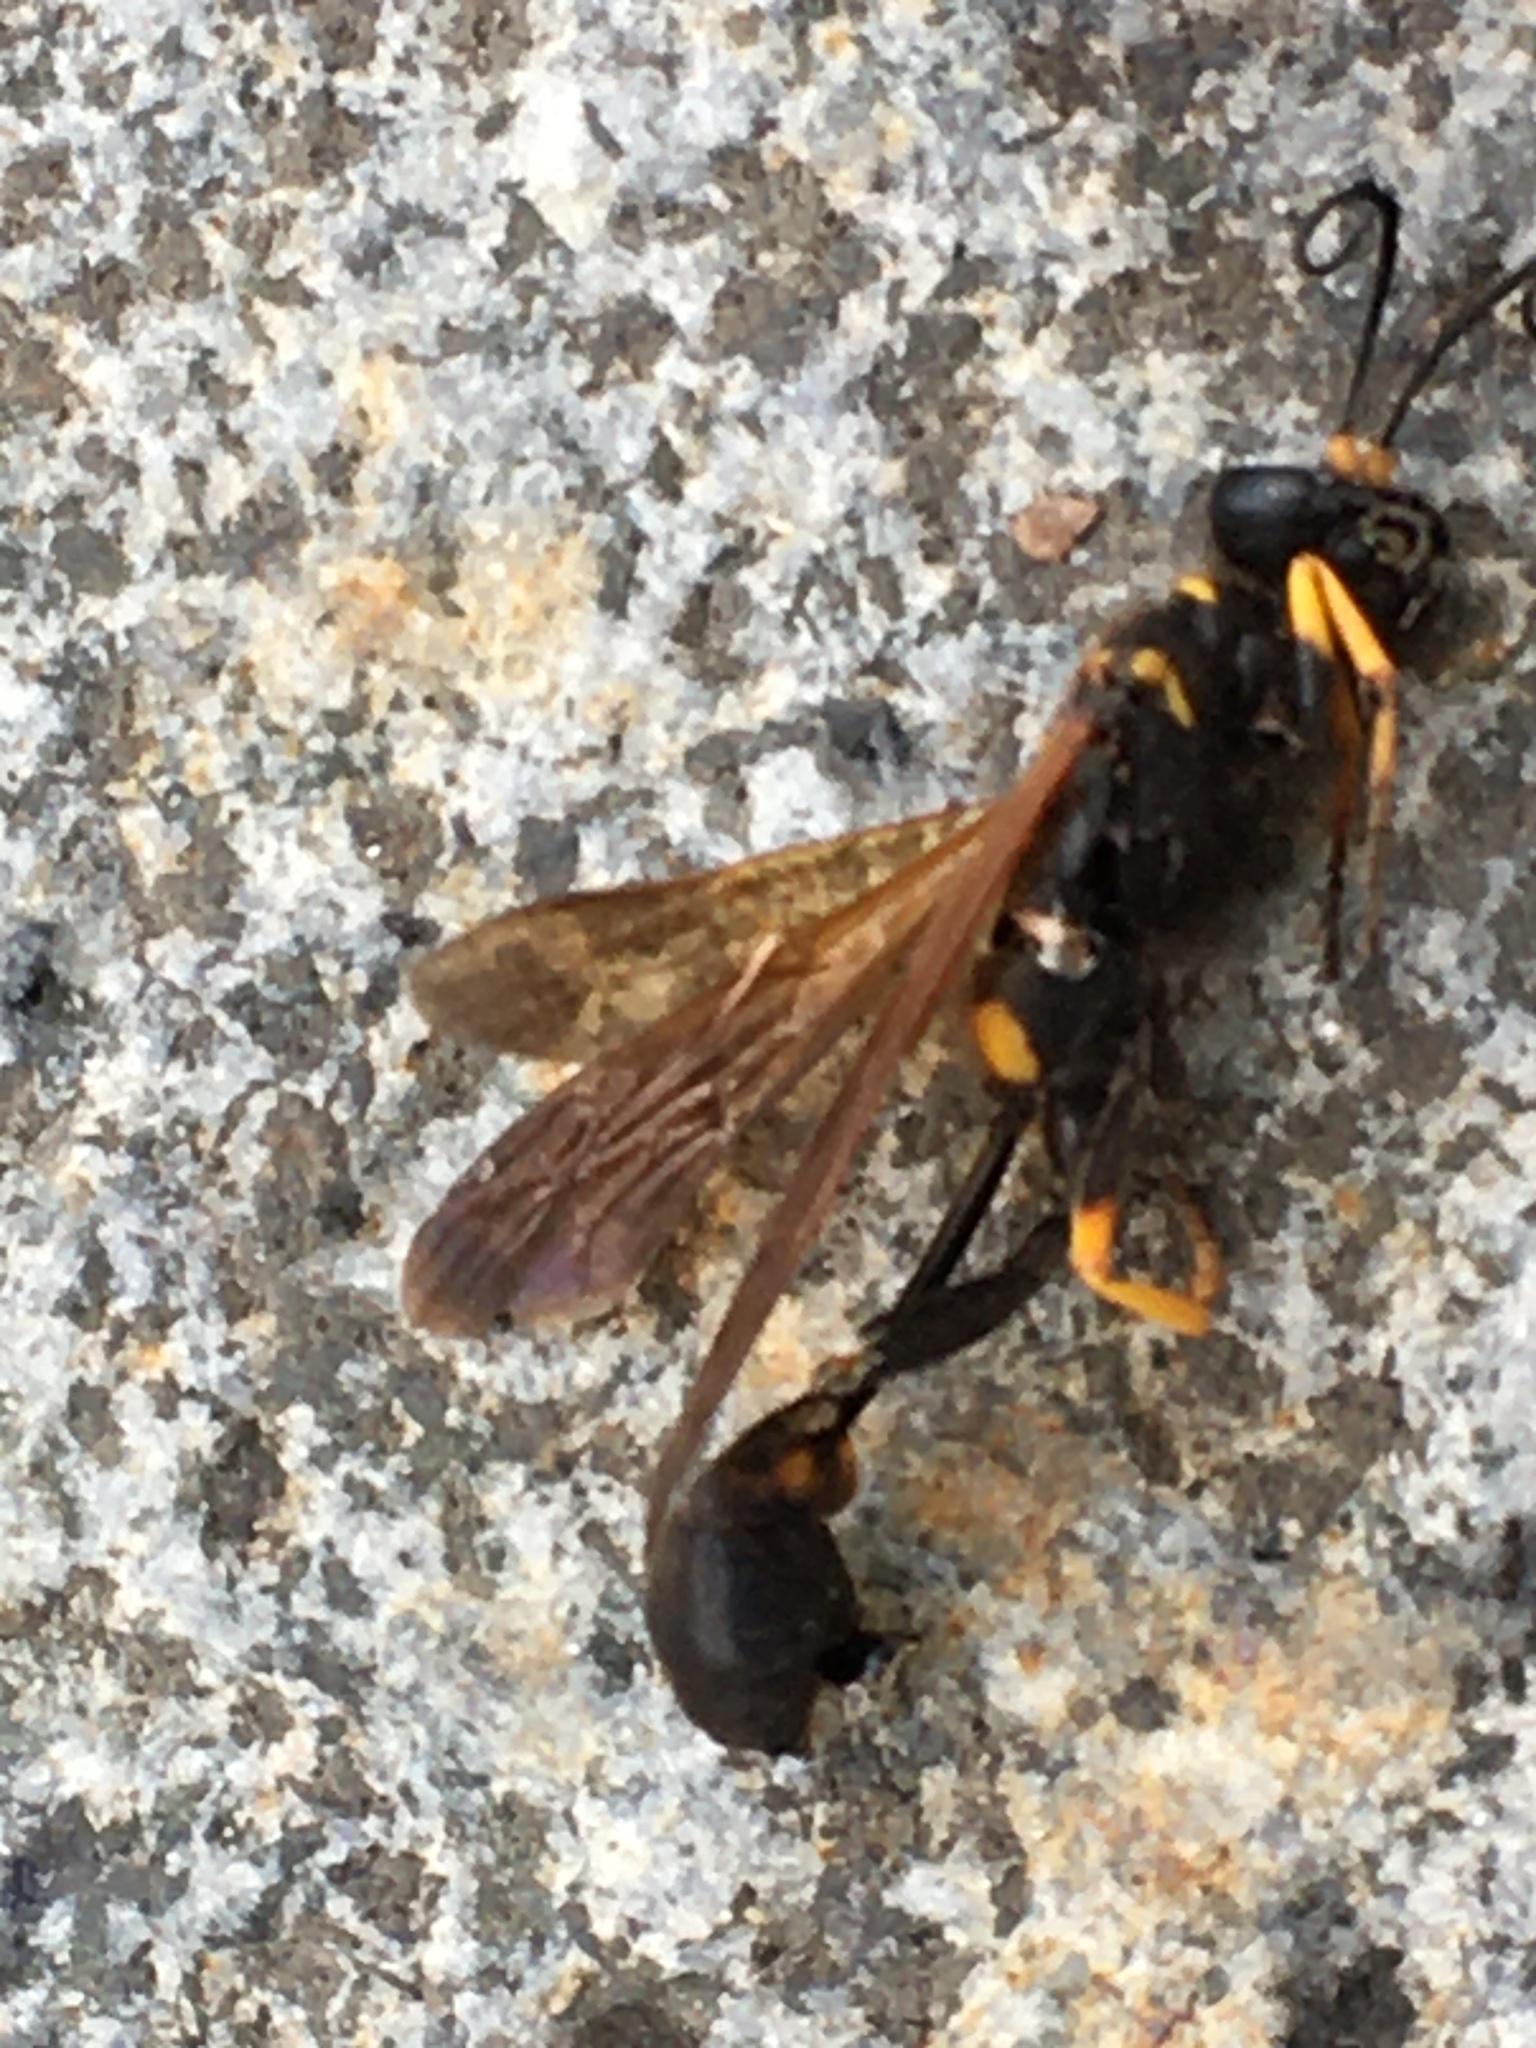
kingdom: Animalia
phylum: Arthropoda
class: Insecta
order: Hymenoptera
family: Sphecidae
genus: Sceliphron
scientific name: Sceliphron caementarium
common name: Mud dauber
